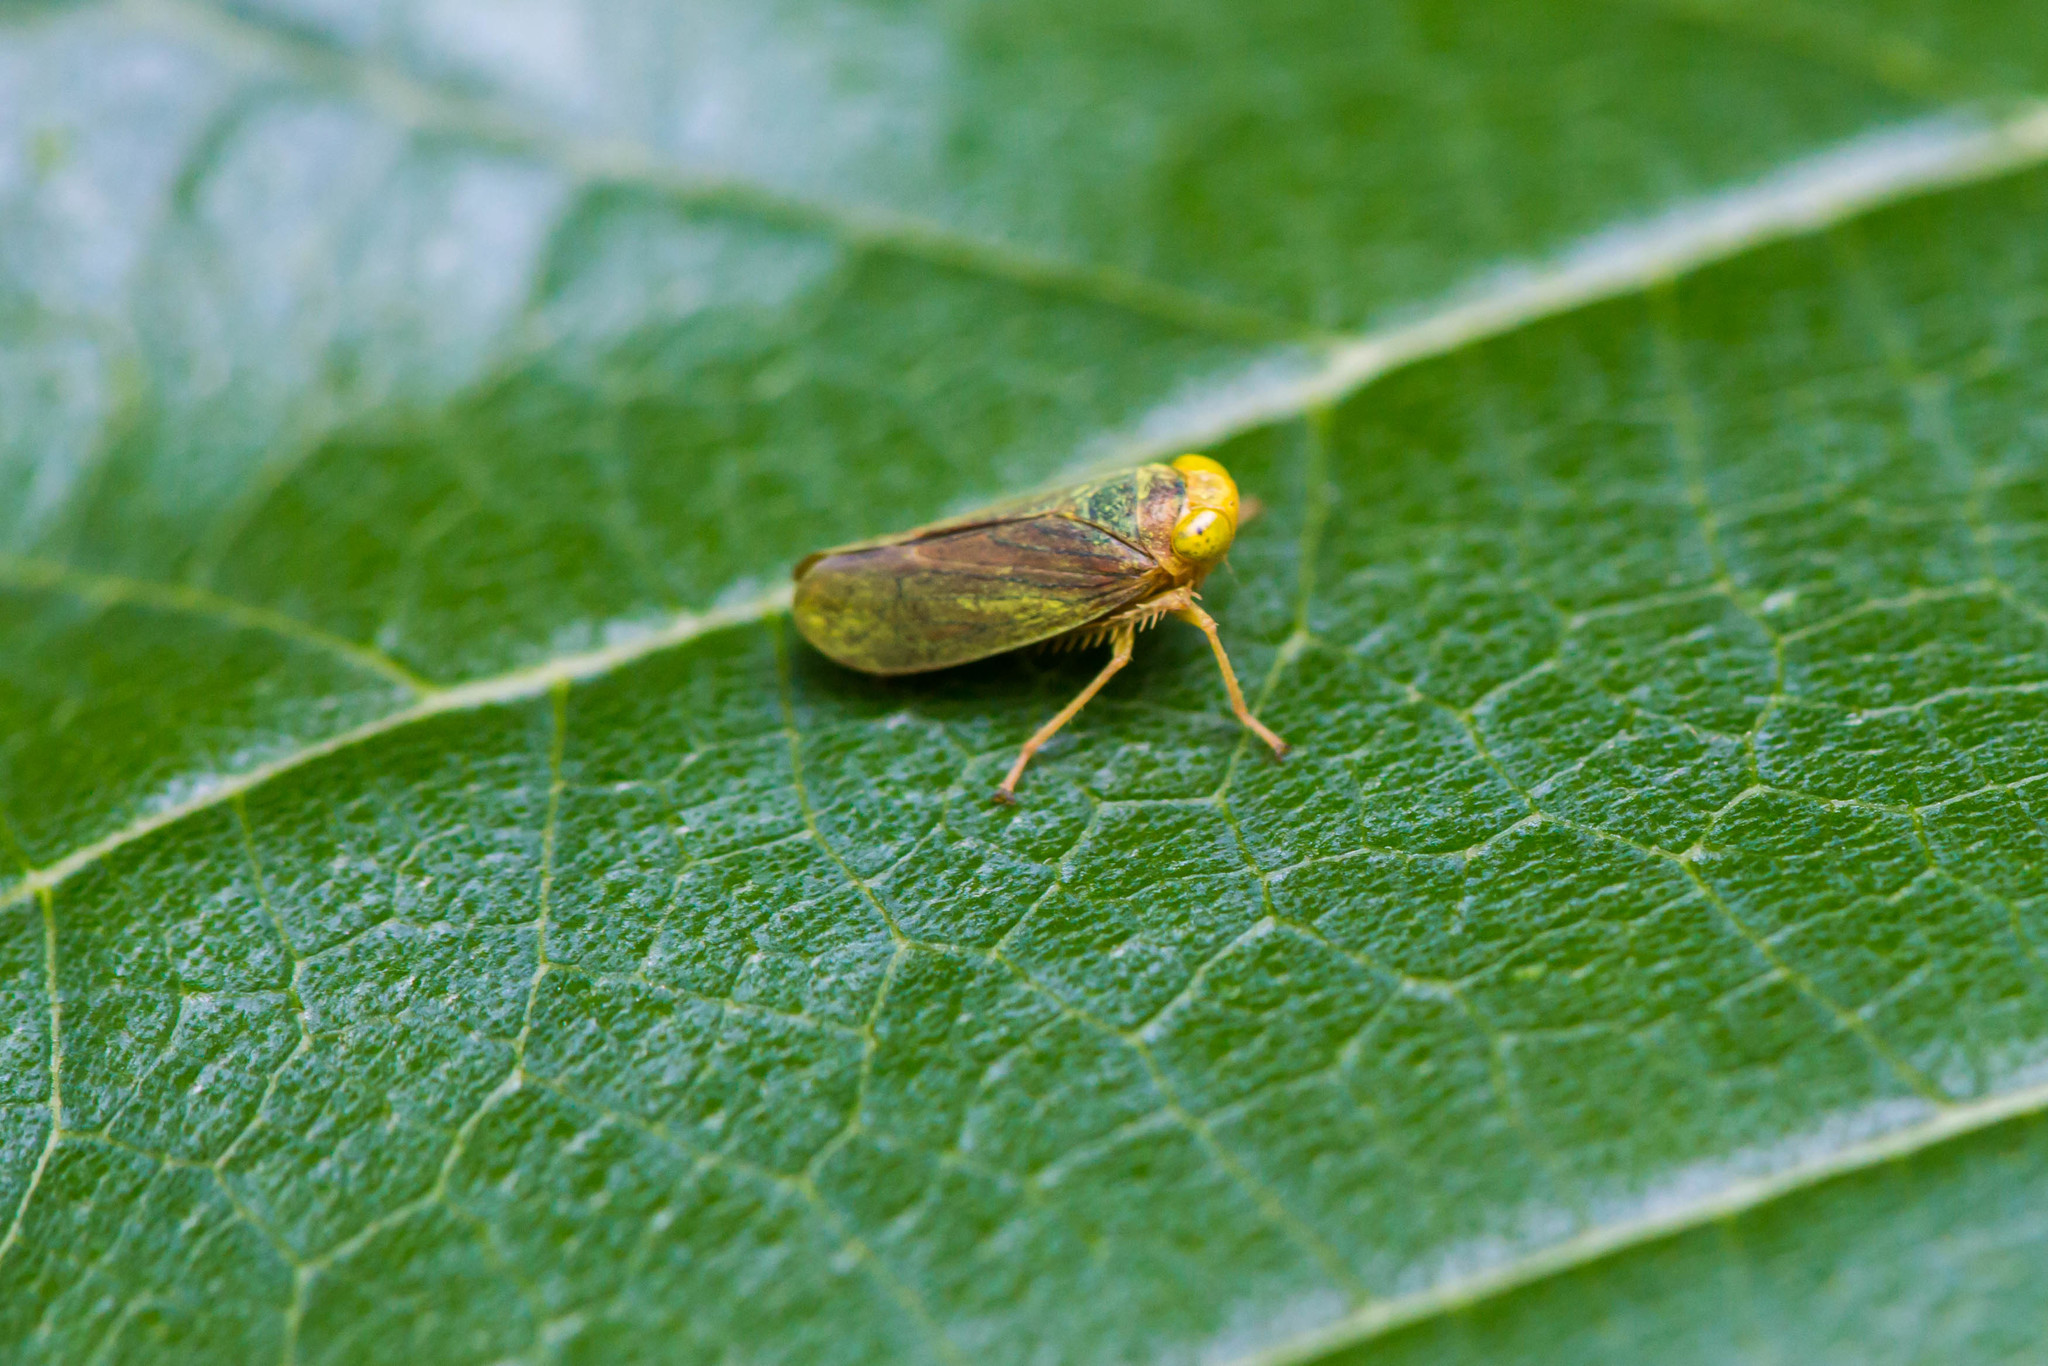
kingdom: Animalia
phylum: Arthropoda
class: Insecta
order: Hemiptera
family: Cicadellidae
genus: Jikradia
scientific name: Jikradia olitoria
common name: Coppery leafhopper
